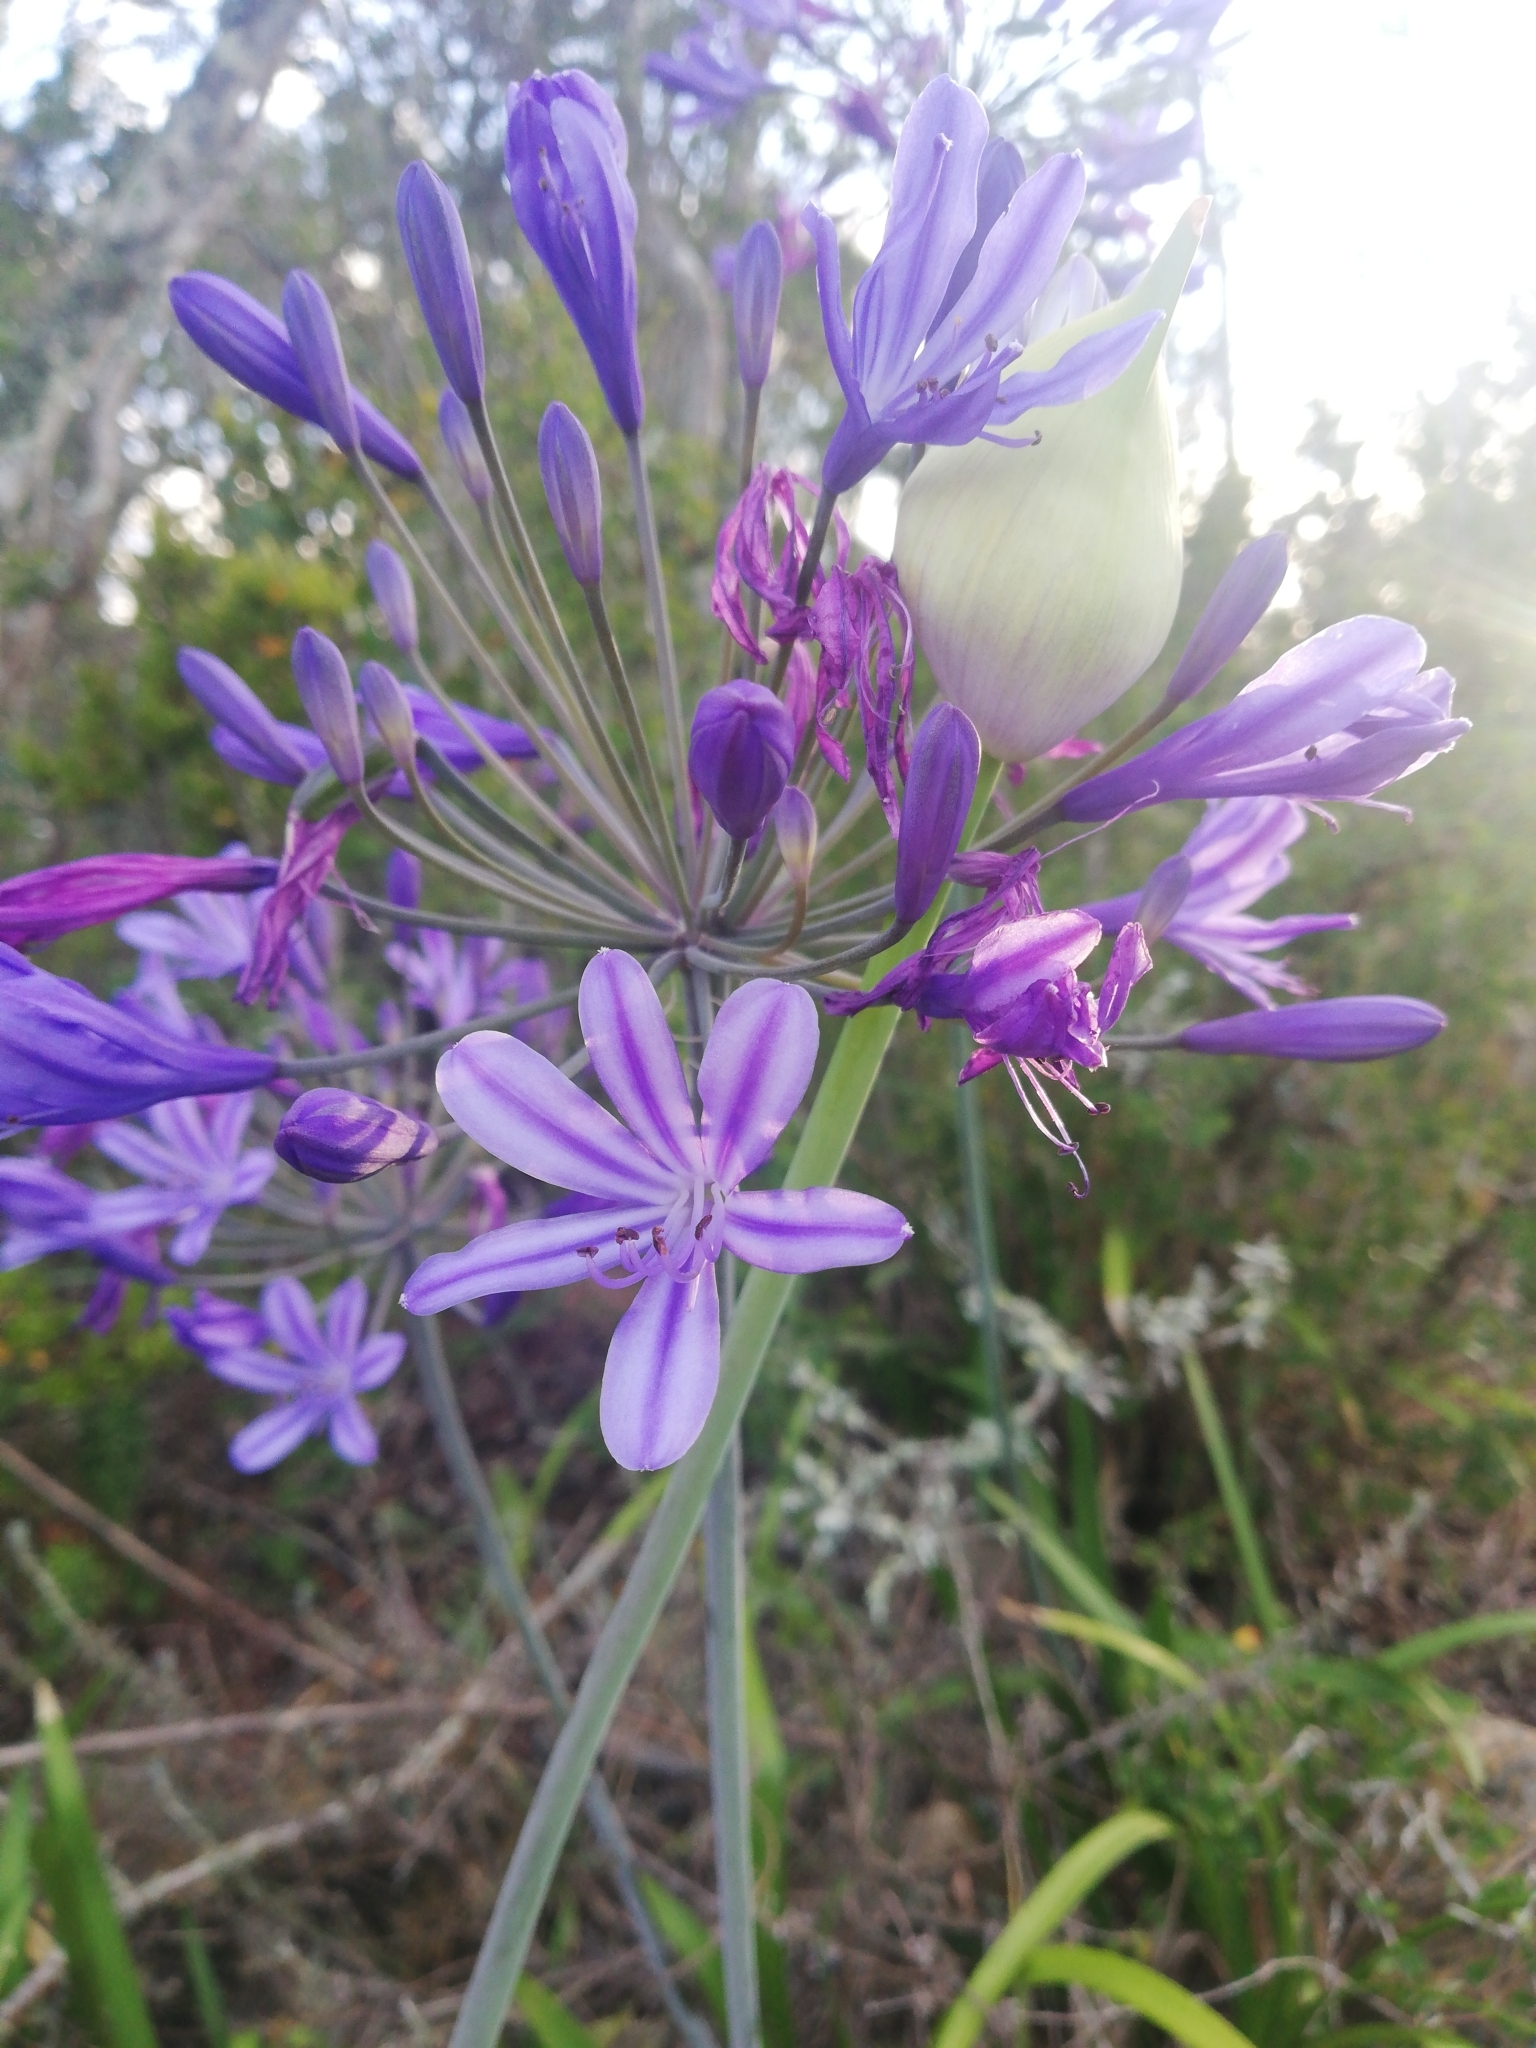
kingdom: Plantae
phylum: Tracheophyta
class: Liliopsida
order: Asparagales
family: Amaryllidaceae
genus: Agapanthus
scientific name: Agapanthus praecox
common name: African-lily
